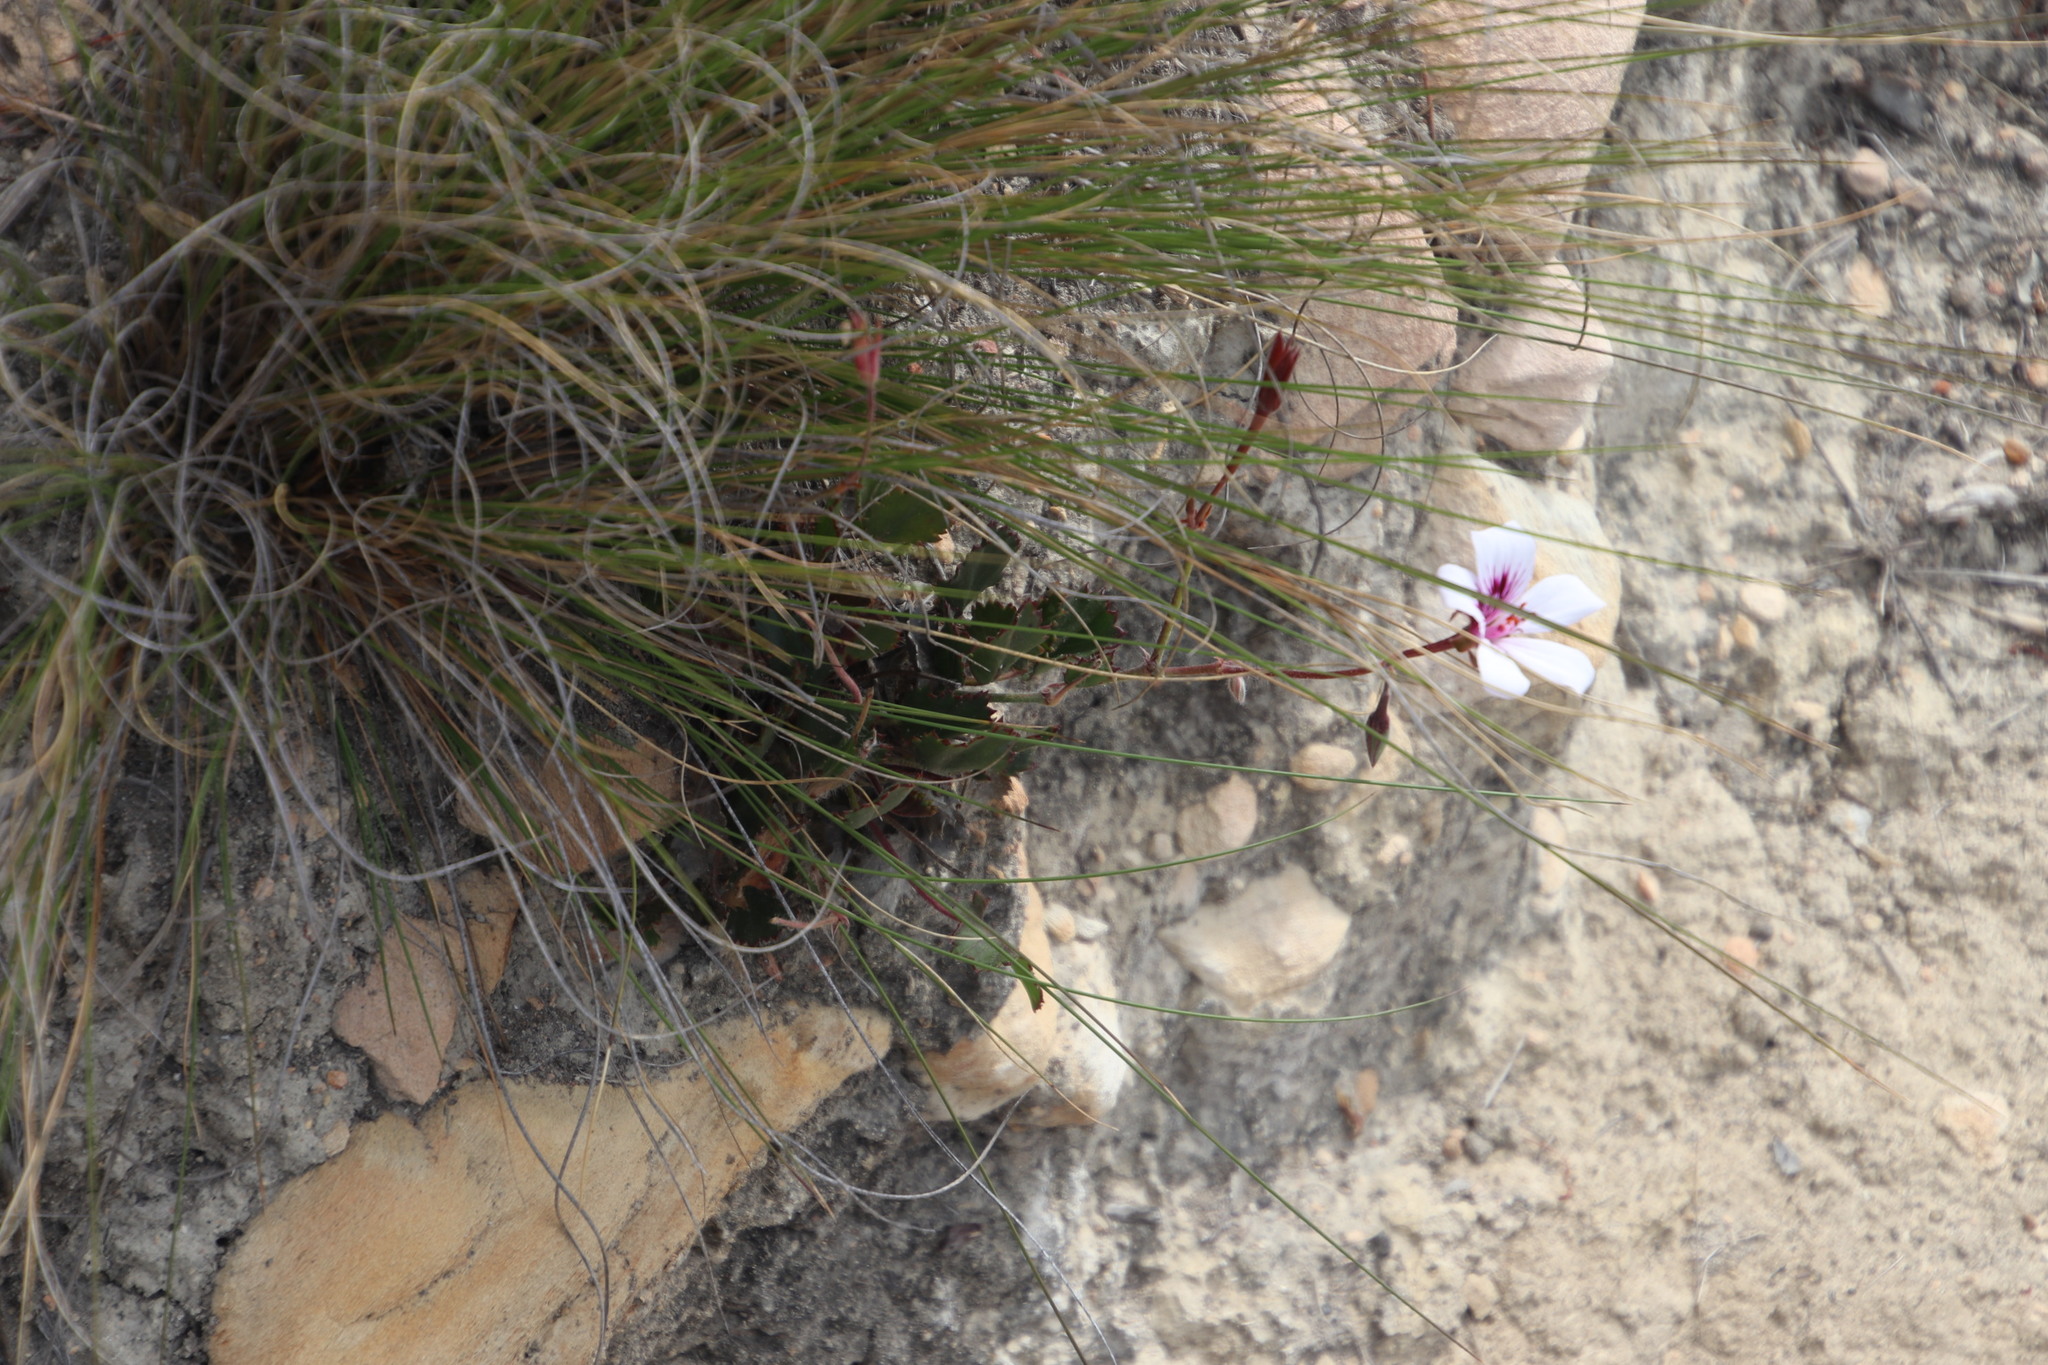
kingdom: Plantae
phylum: Tracheophyta
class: Magnoliopsida
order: Geraniales
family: Geraniaceae
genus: Pelargonium
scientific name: Pelargonium elegans
